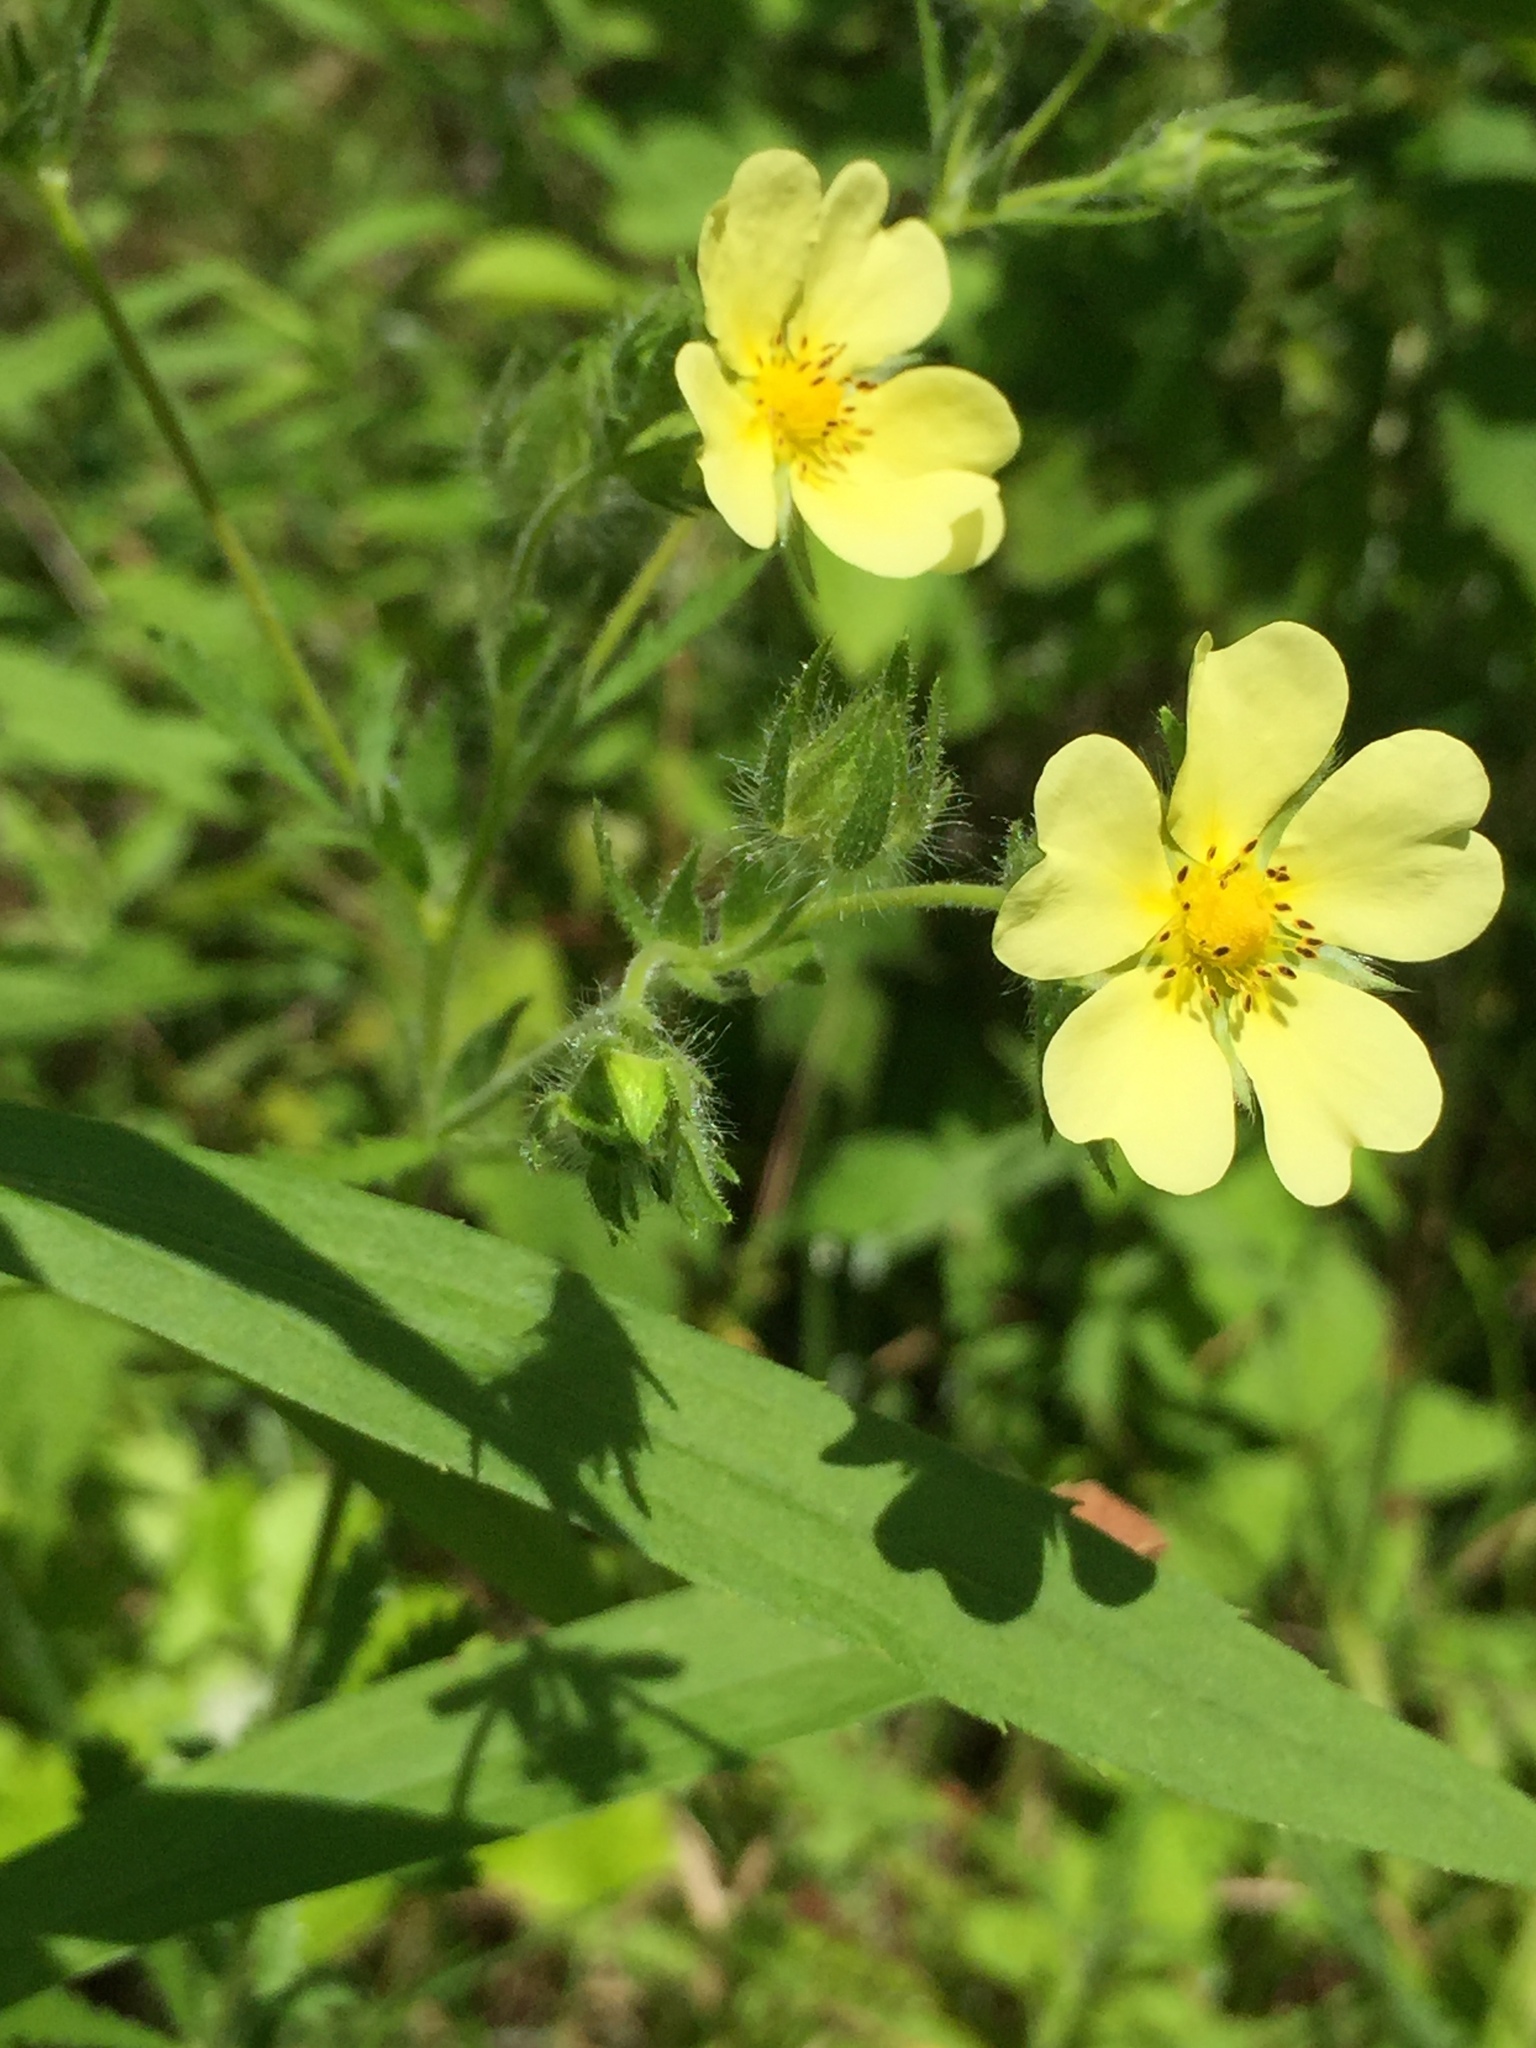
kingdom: Plantae
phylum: Tracheophyta
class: Magnoliopsida
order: Rosales
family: Rosaceae
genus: Potentilla
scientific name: Potentilla recta
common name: Sulphur cinquefoil
